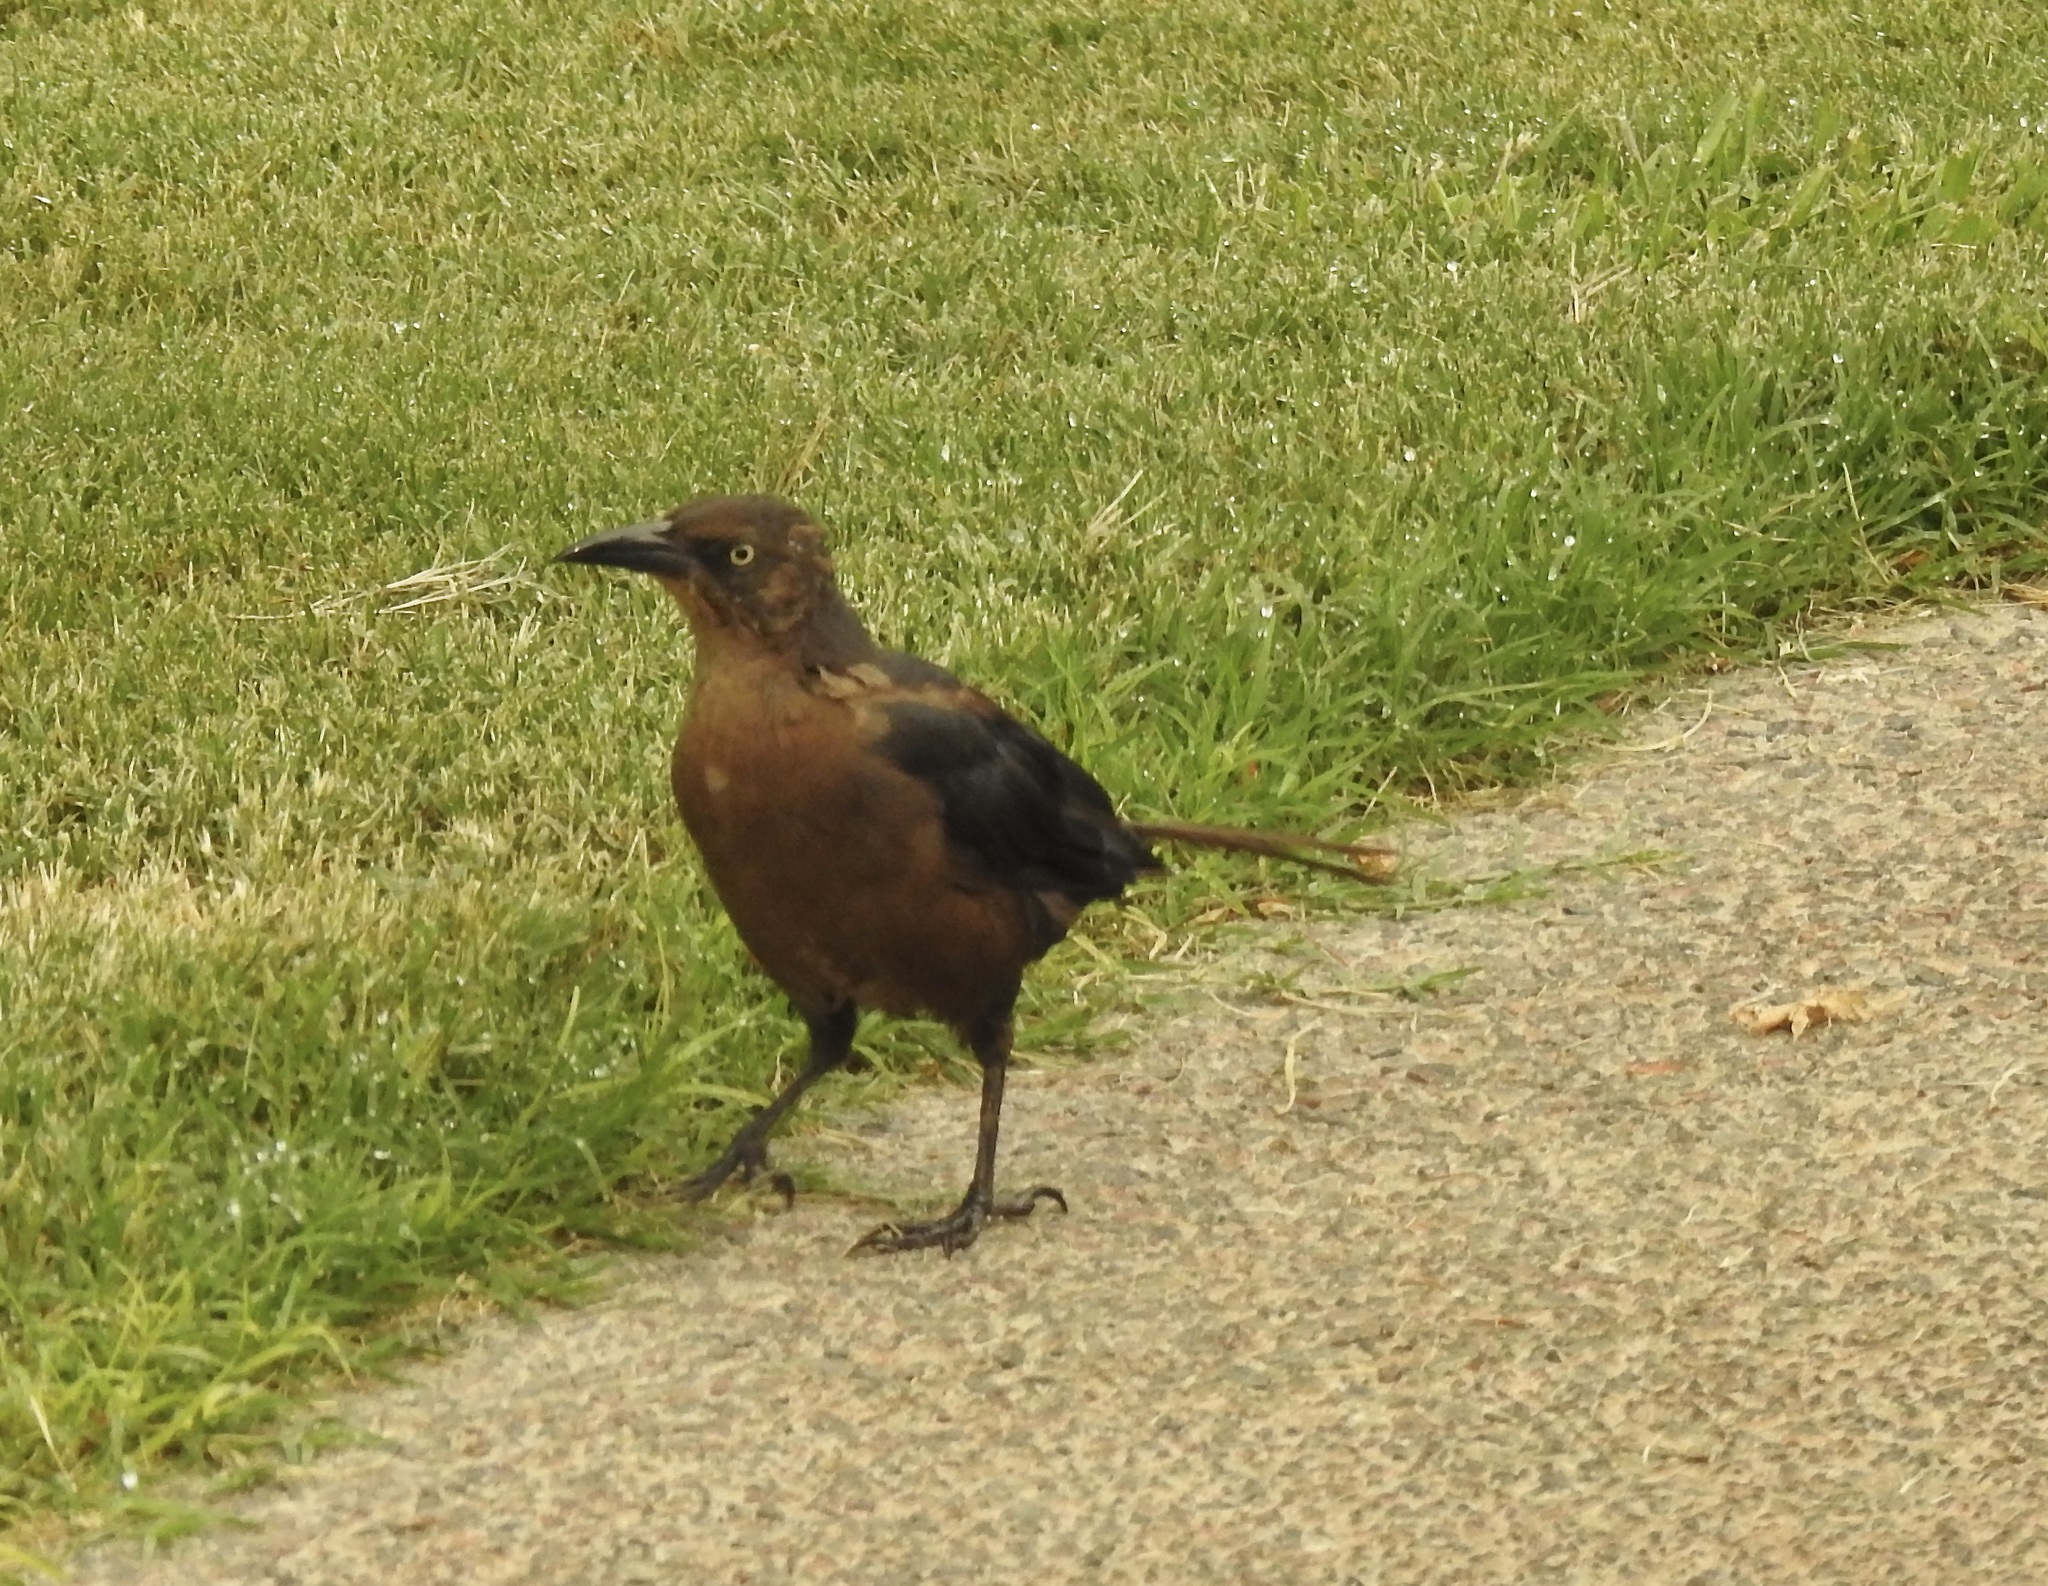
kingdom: Animalia
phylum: Chordata
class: Aves
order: Passeriformes
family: Icteridae
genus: Quiscalus
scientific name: Quiscalus mexicanus
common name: Great-tailed grackle
